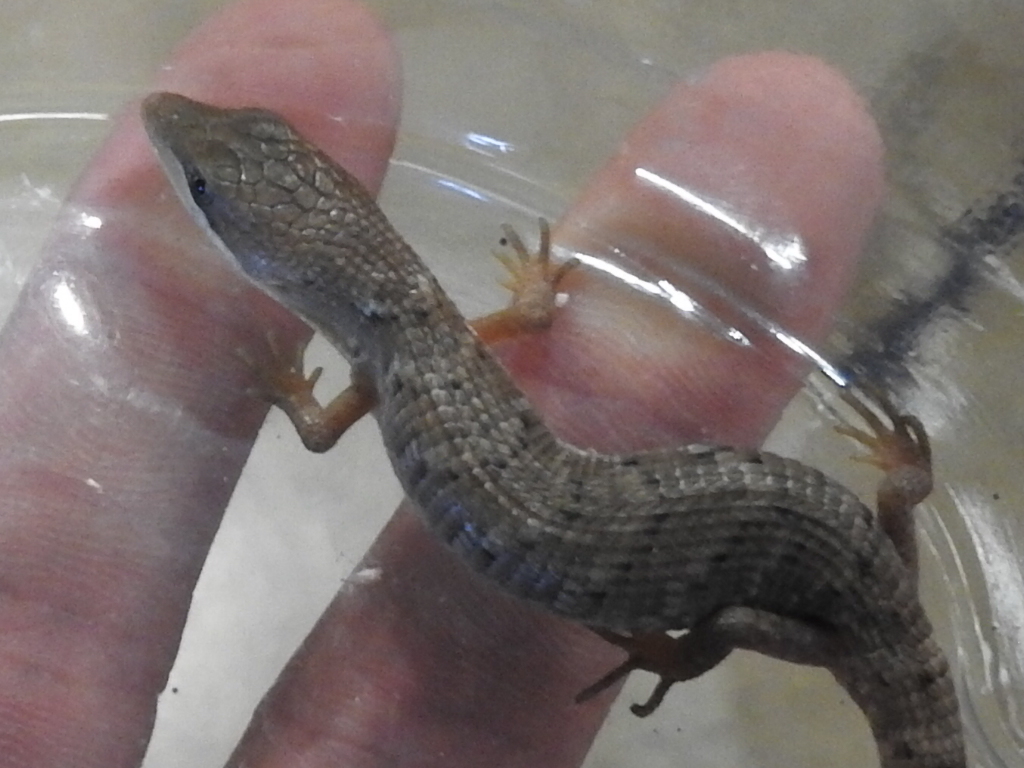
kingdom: Animalia
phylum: Chordata
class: Squamata
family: Anguidae
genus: Gerrhonotus
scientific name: Gerrhonotus infernalis
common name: Texas alligator lizard
